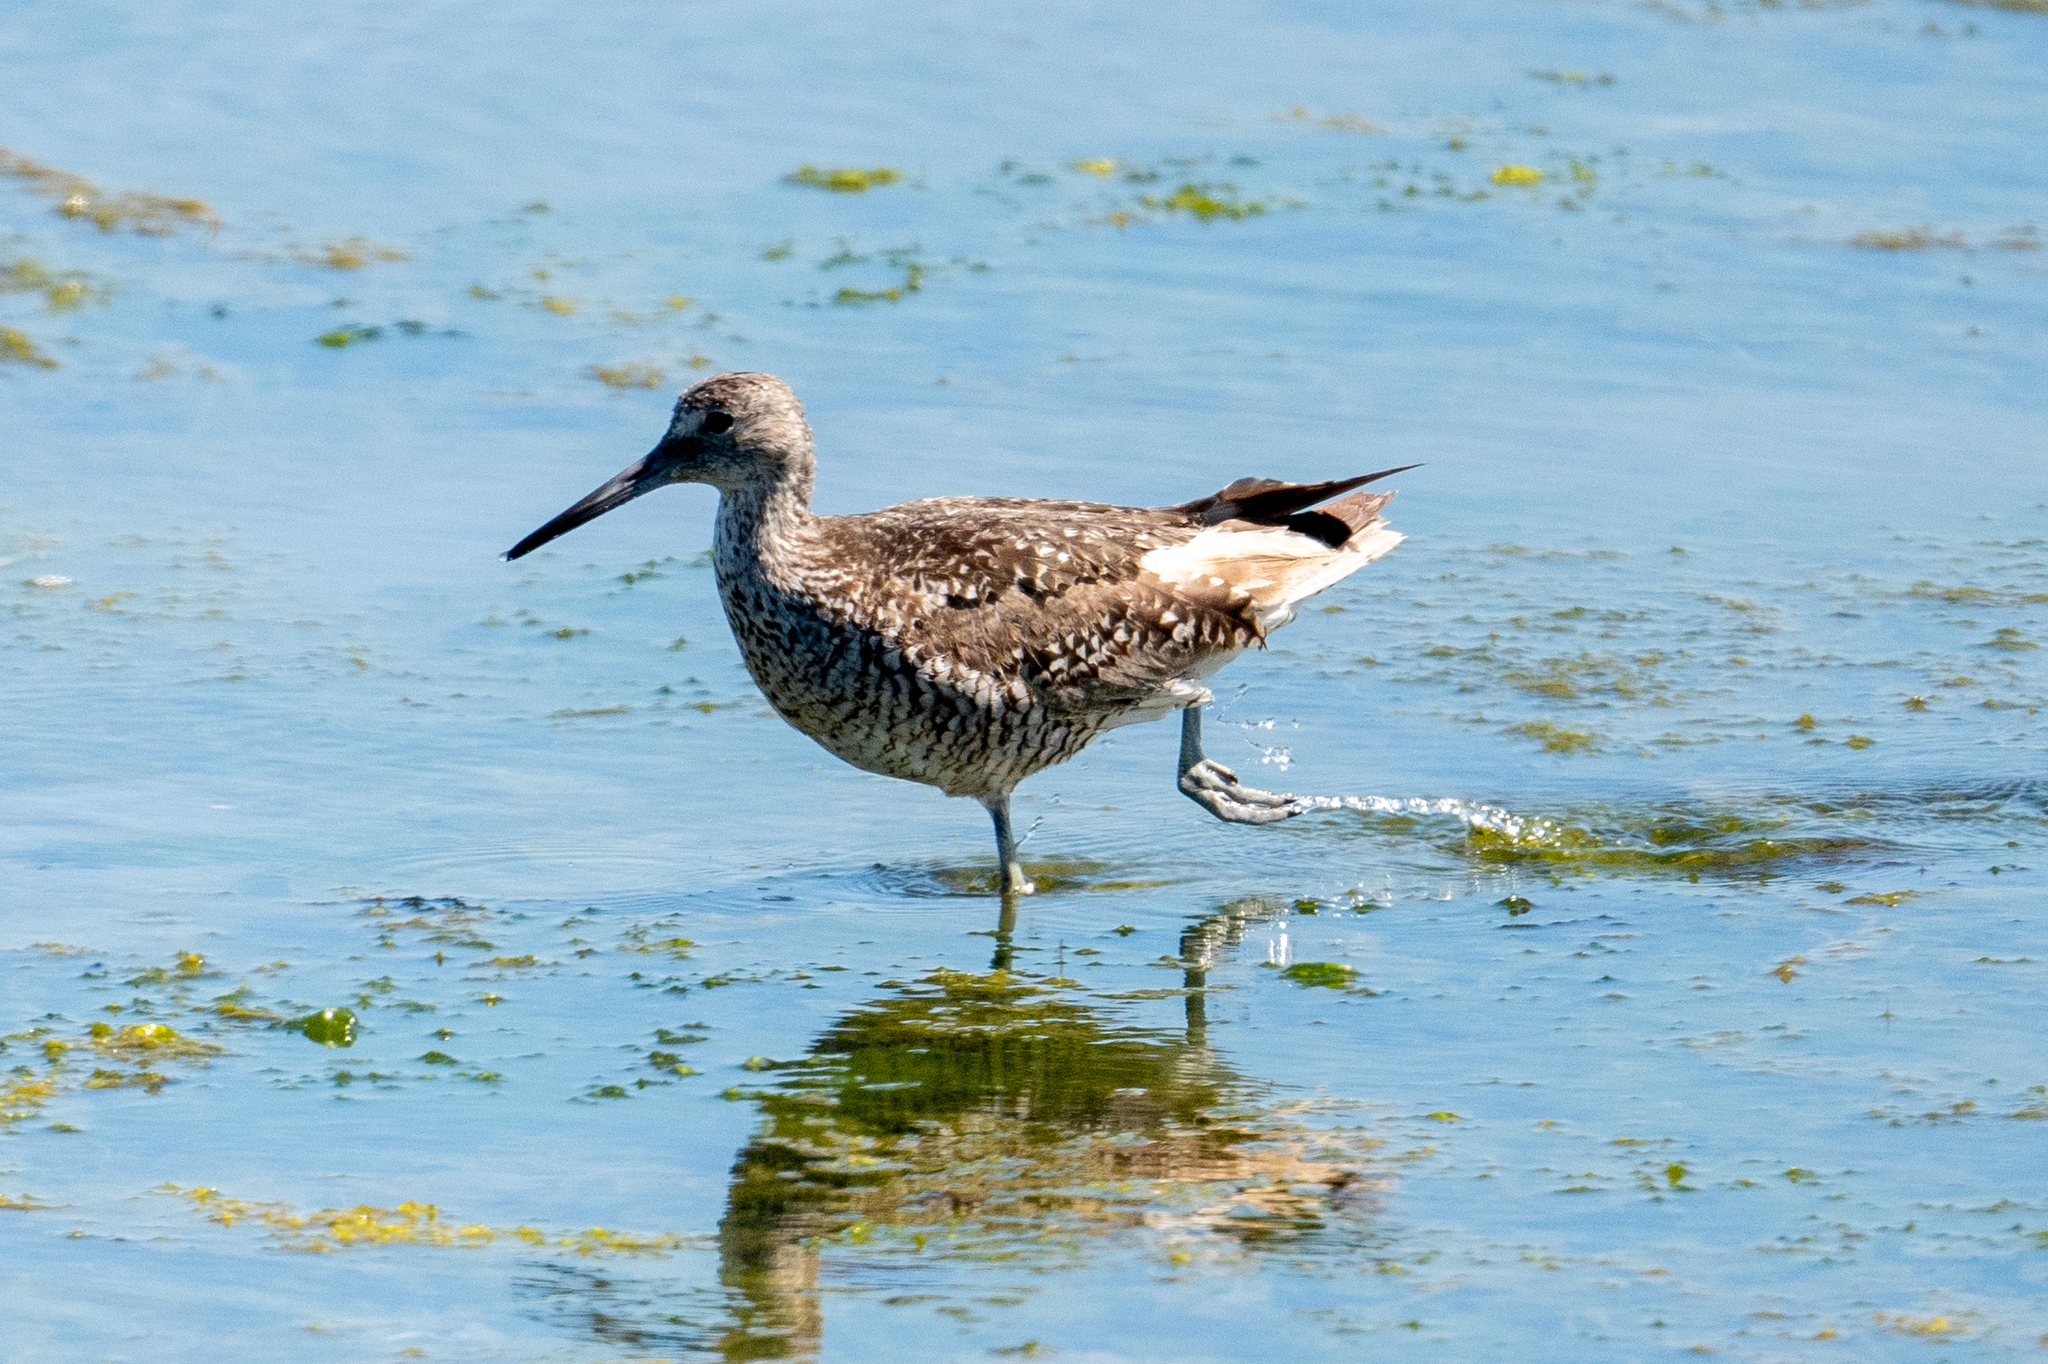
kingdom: Animalia
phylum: Chordata
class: Aves
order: Charadriiformes
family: Scolopacidae
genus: Tringa
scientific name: Tringa semipalmata
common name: Willet
